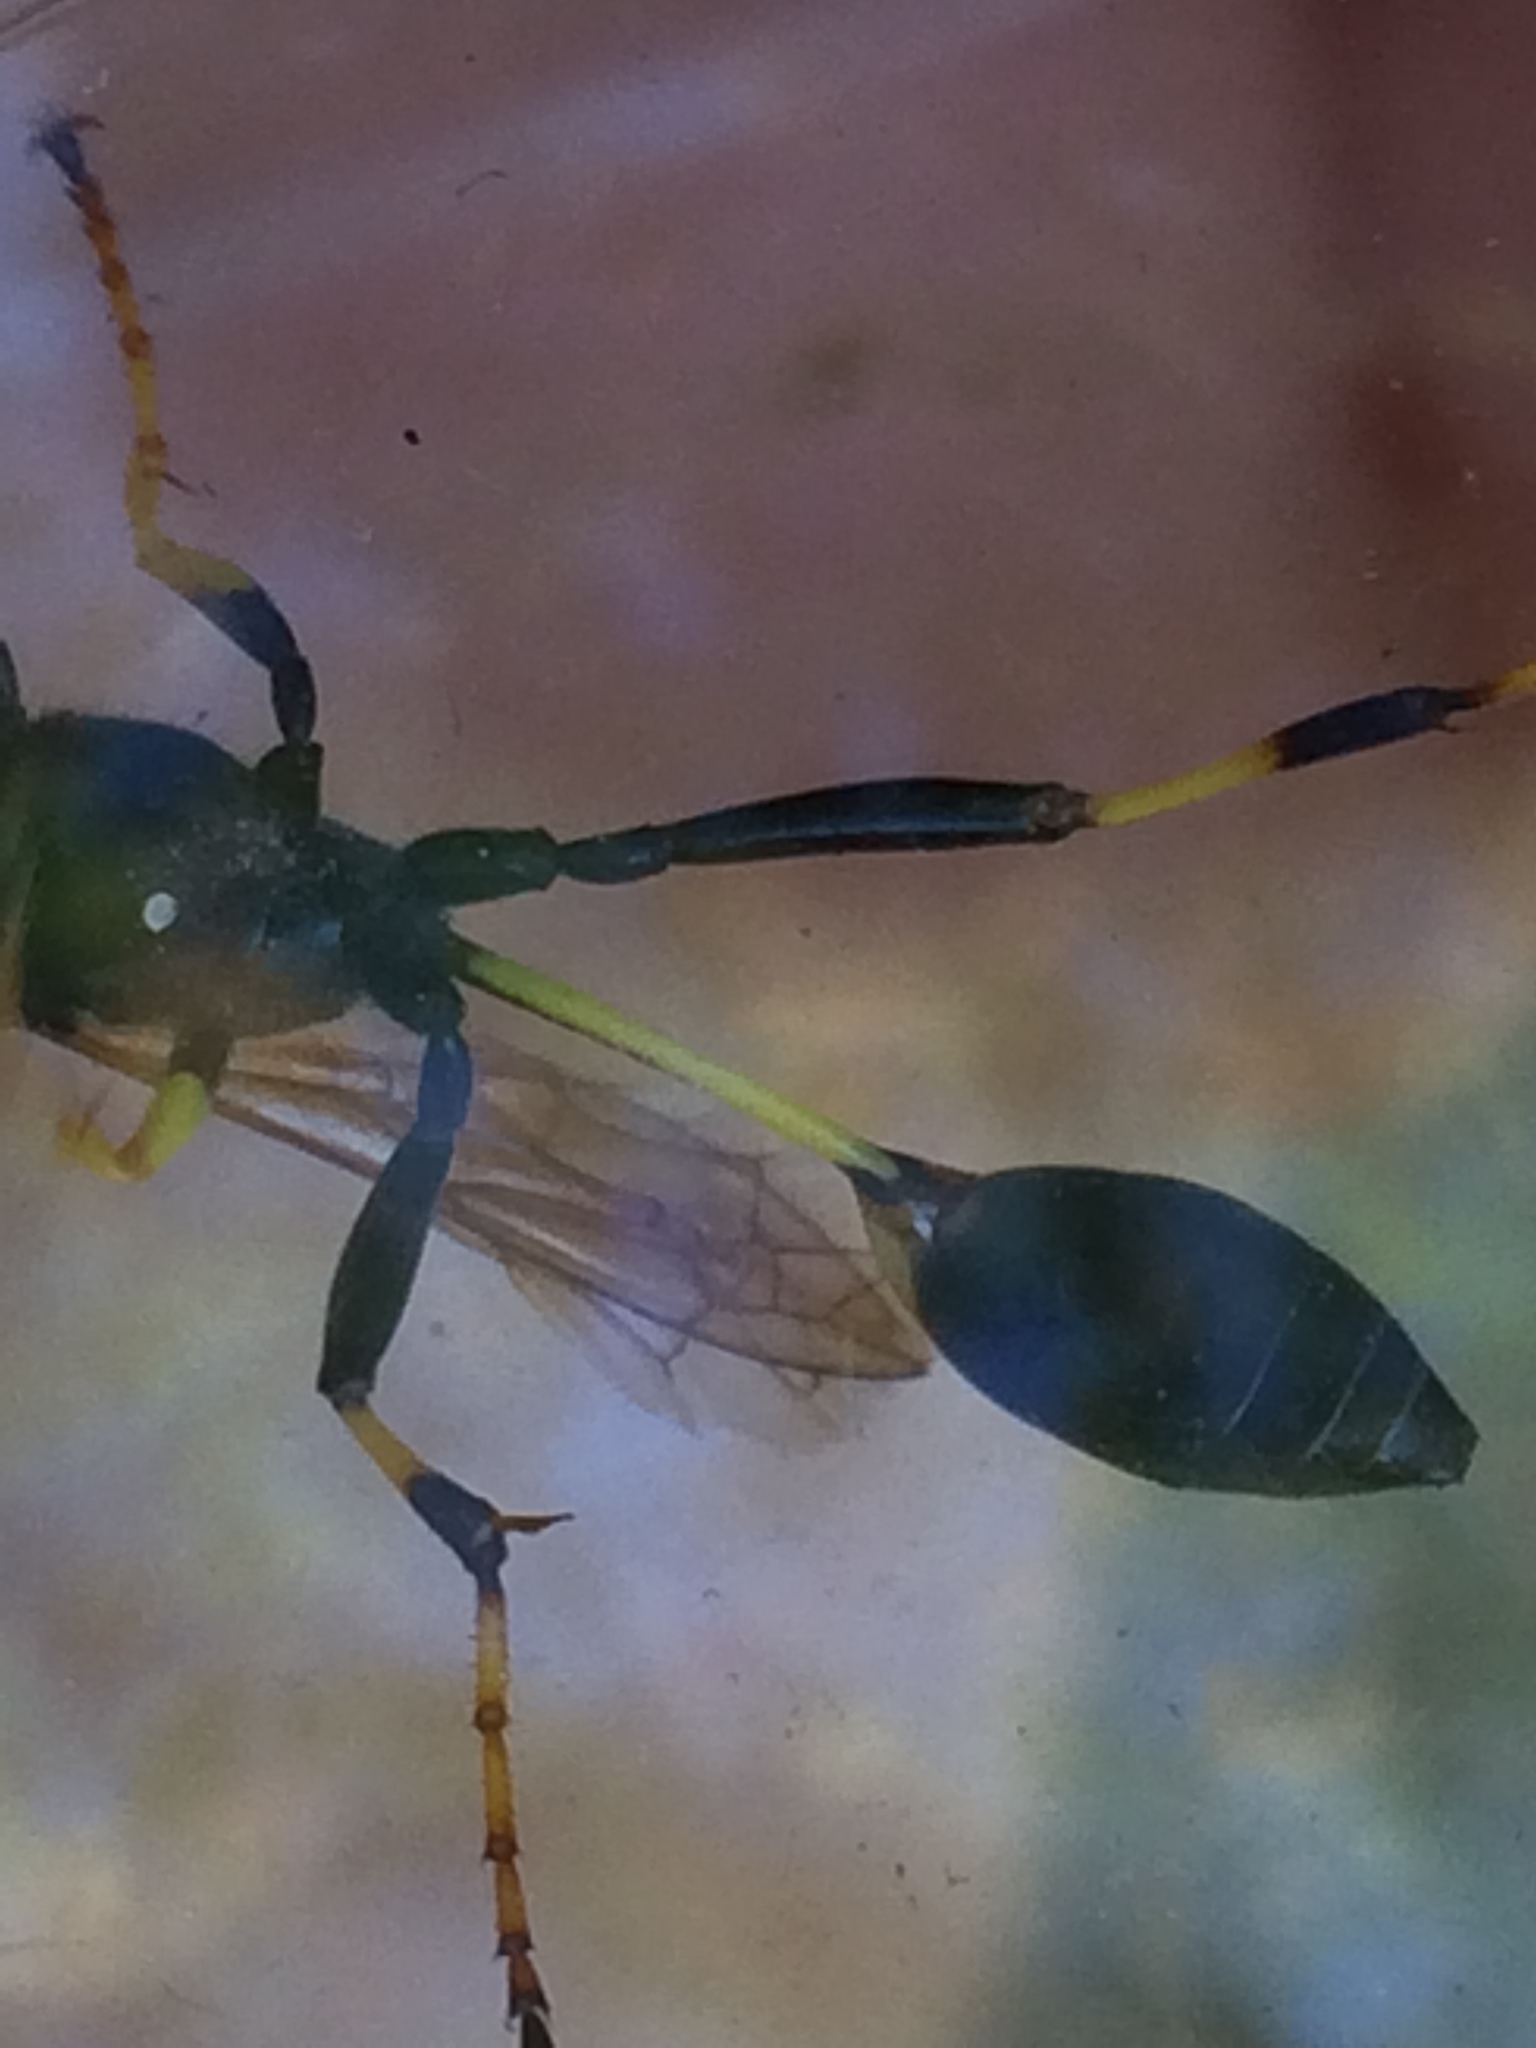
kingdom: Animalia
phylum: Arthropoda
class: Insecta
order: Hymenoptera
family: Sphecidae
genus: Sceliphron
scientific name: Sceliphron caementarium
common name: Mud dauber
